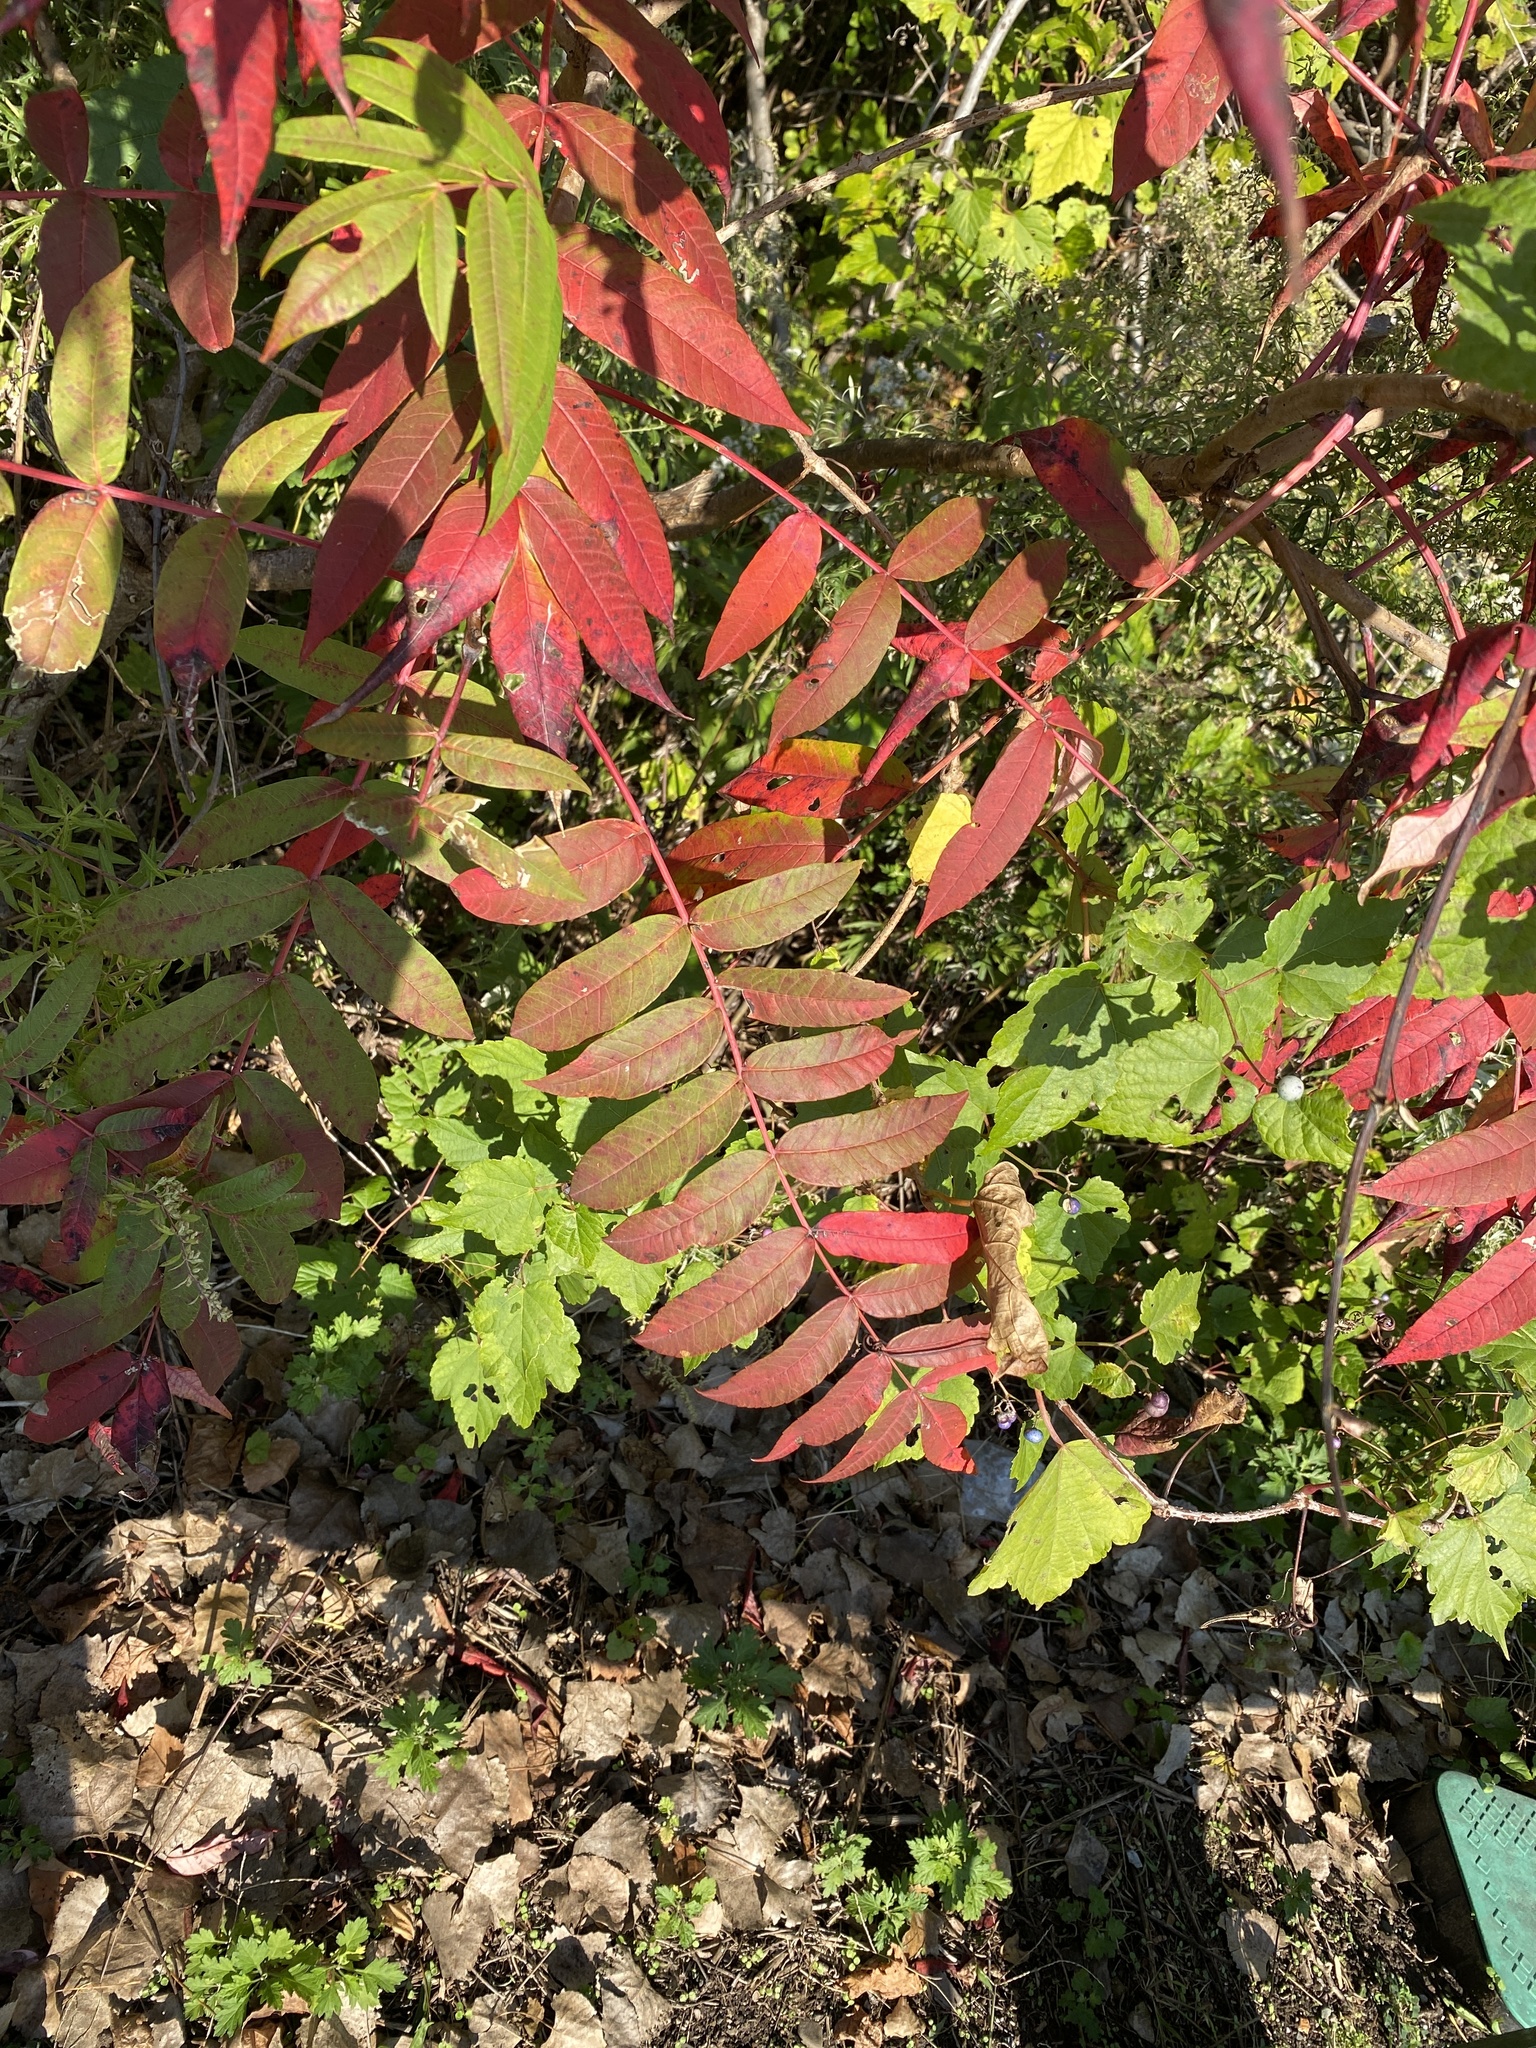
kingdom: Plantae
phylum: Tracheophyta
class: Magnoliopsida
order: Sapindales
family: Anacardiaceae
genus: Rhus
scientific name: Rhus glabra
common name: Scarlet sumac
